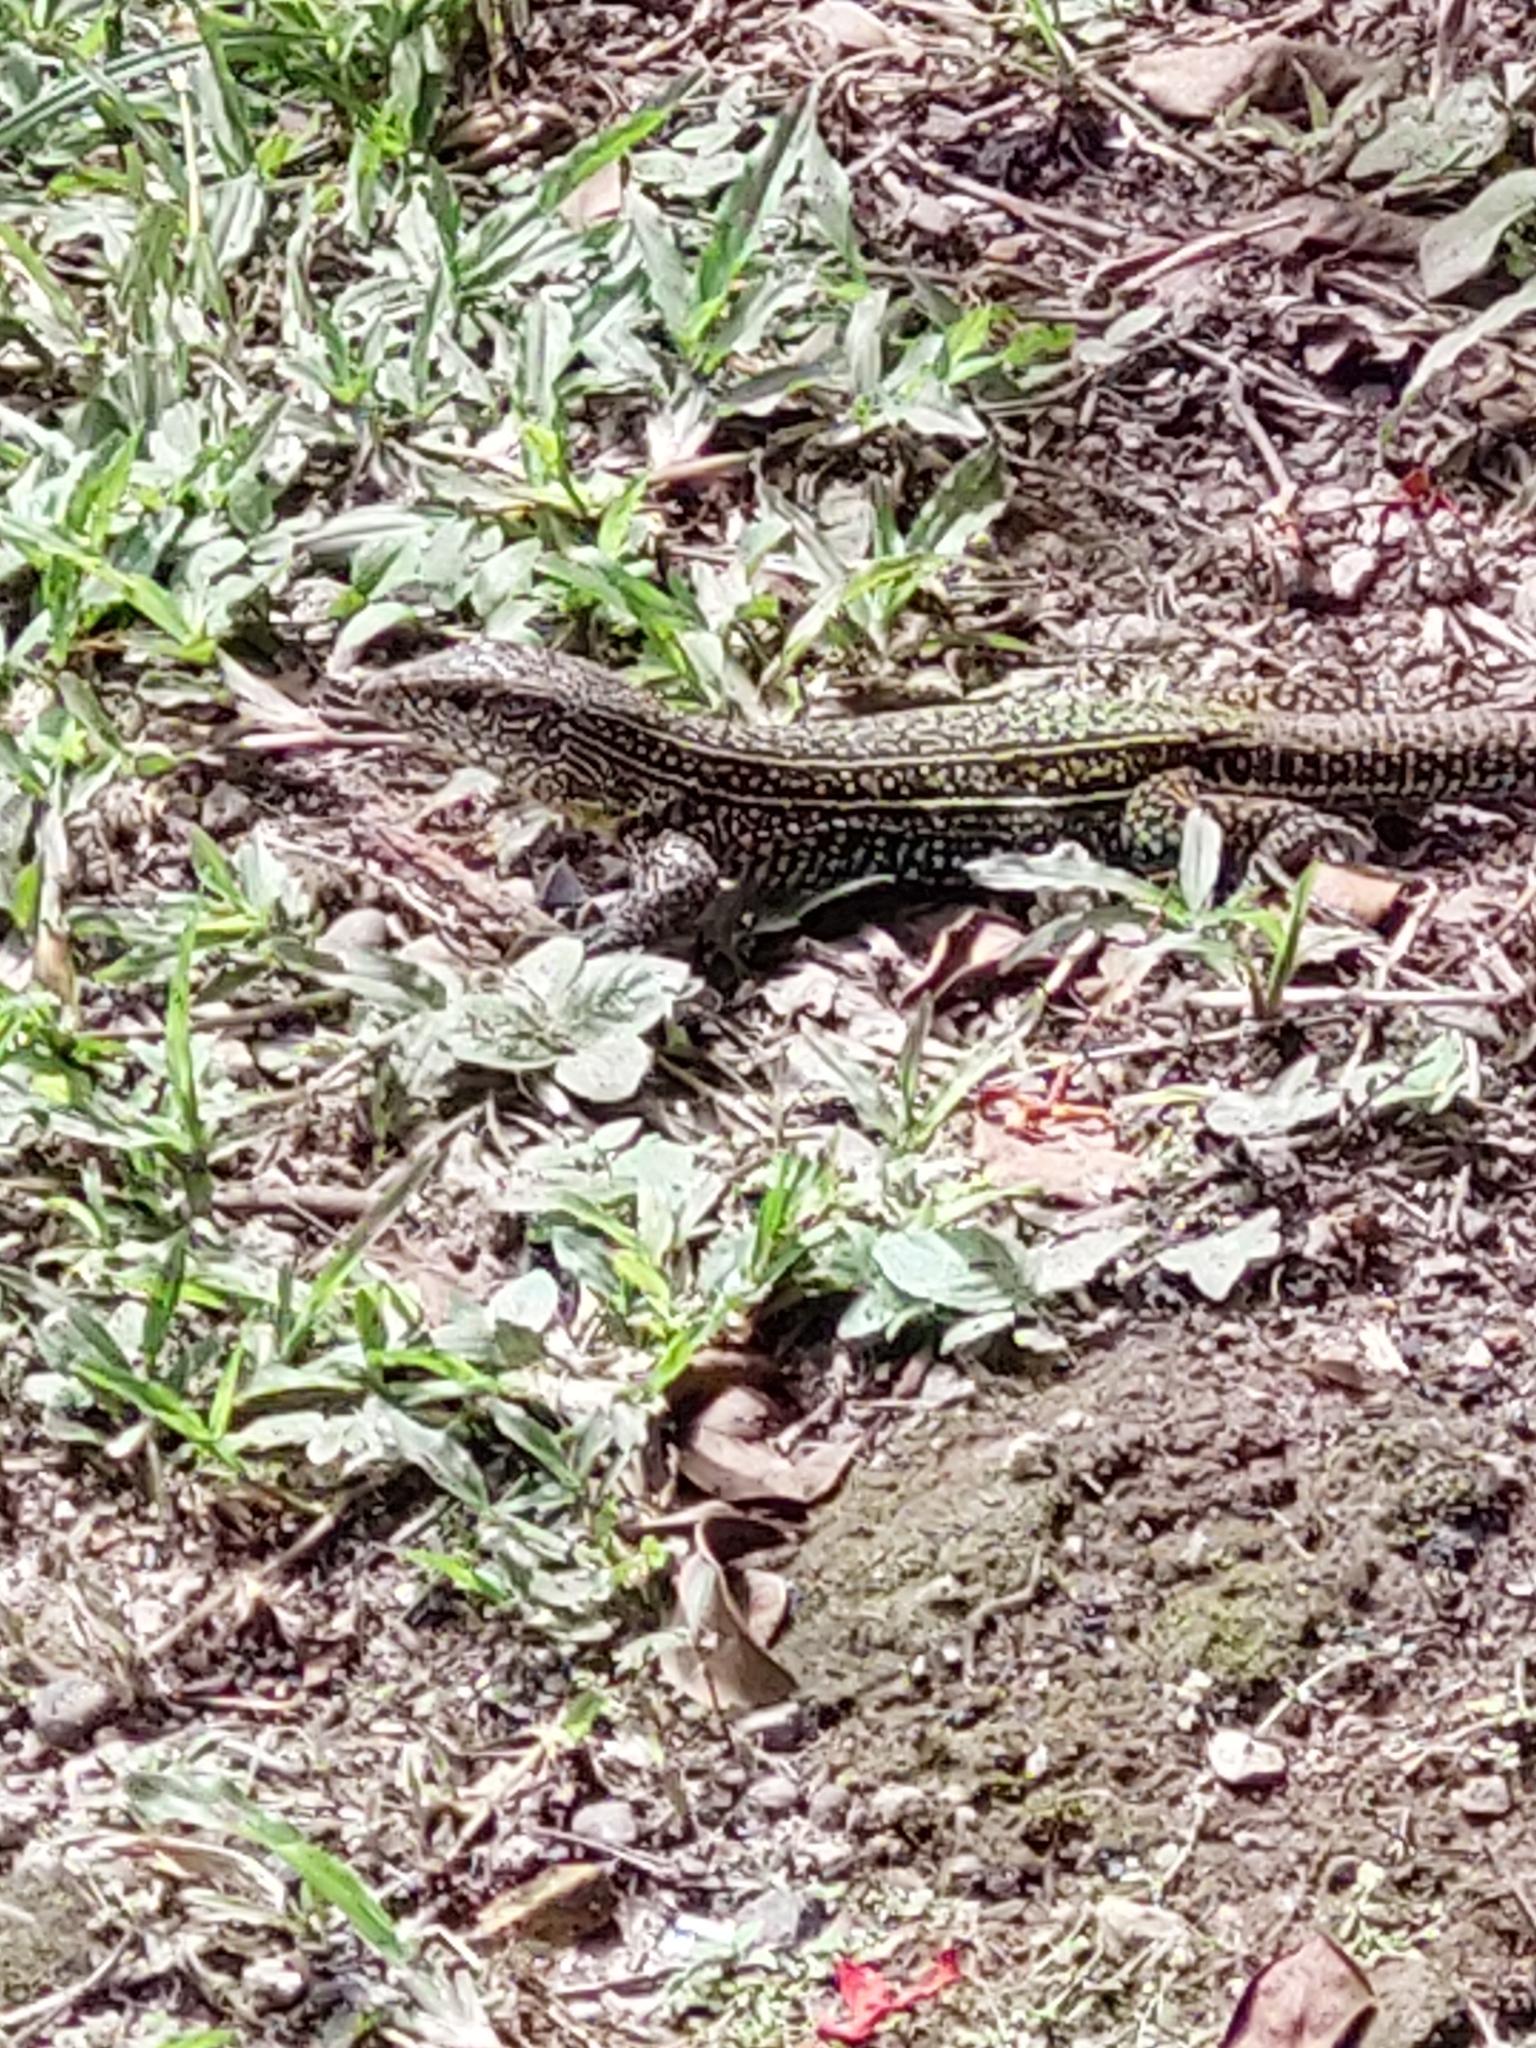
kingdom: Animalia
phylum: Chordata
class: Squamata
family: Teiidae
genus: Ameiva
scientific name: Ameiva praesignis
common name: Giant ameiva
